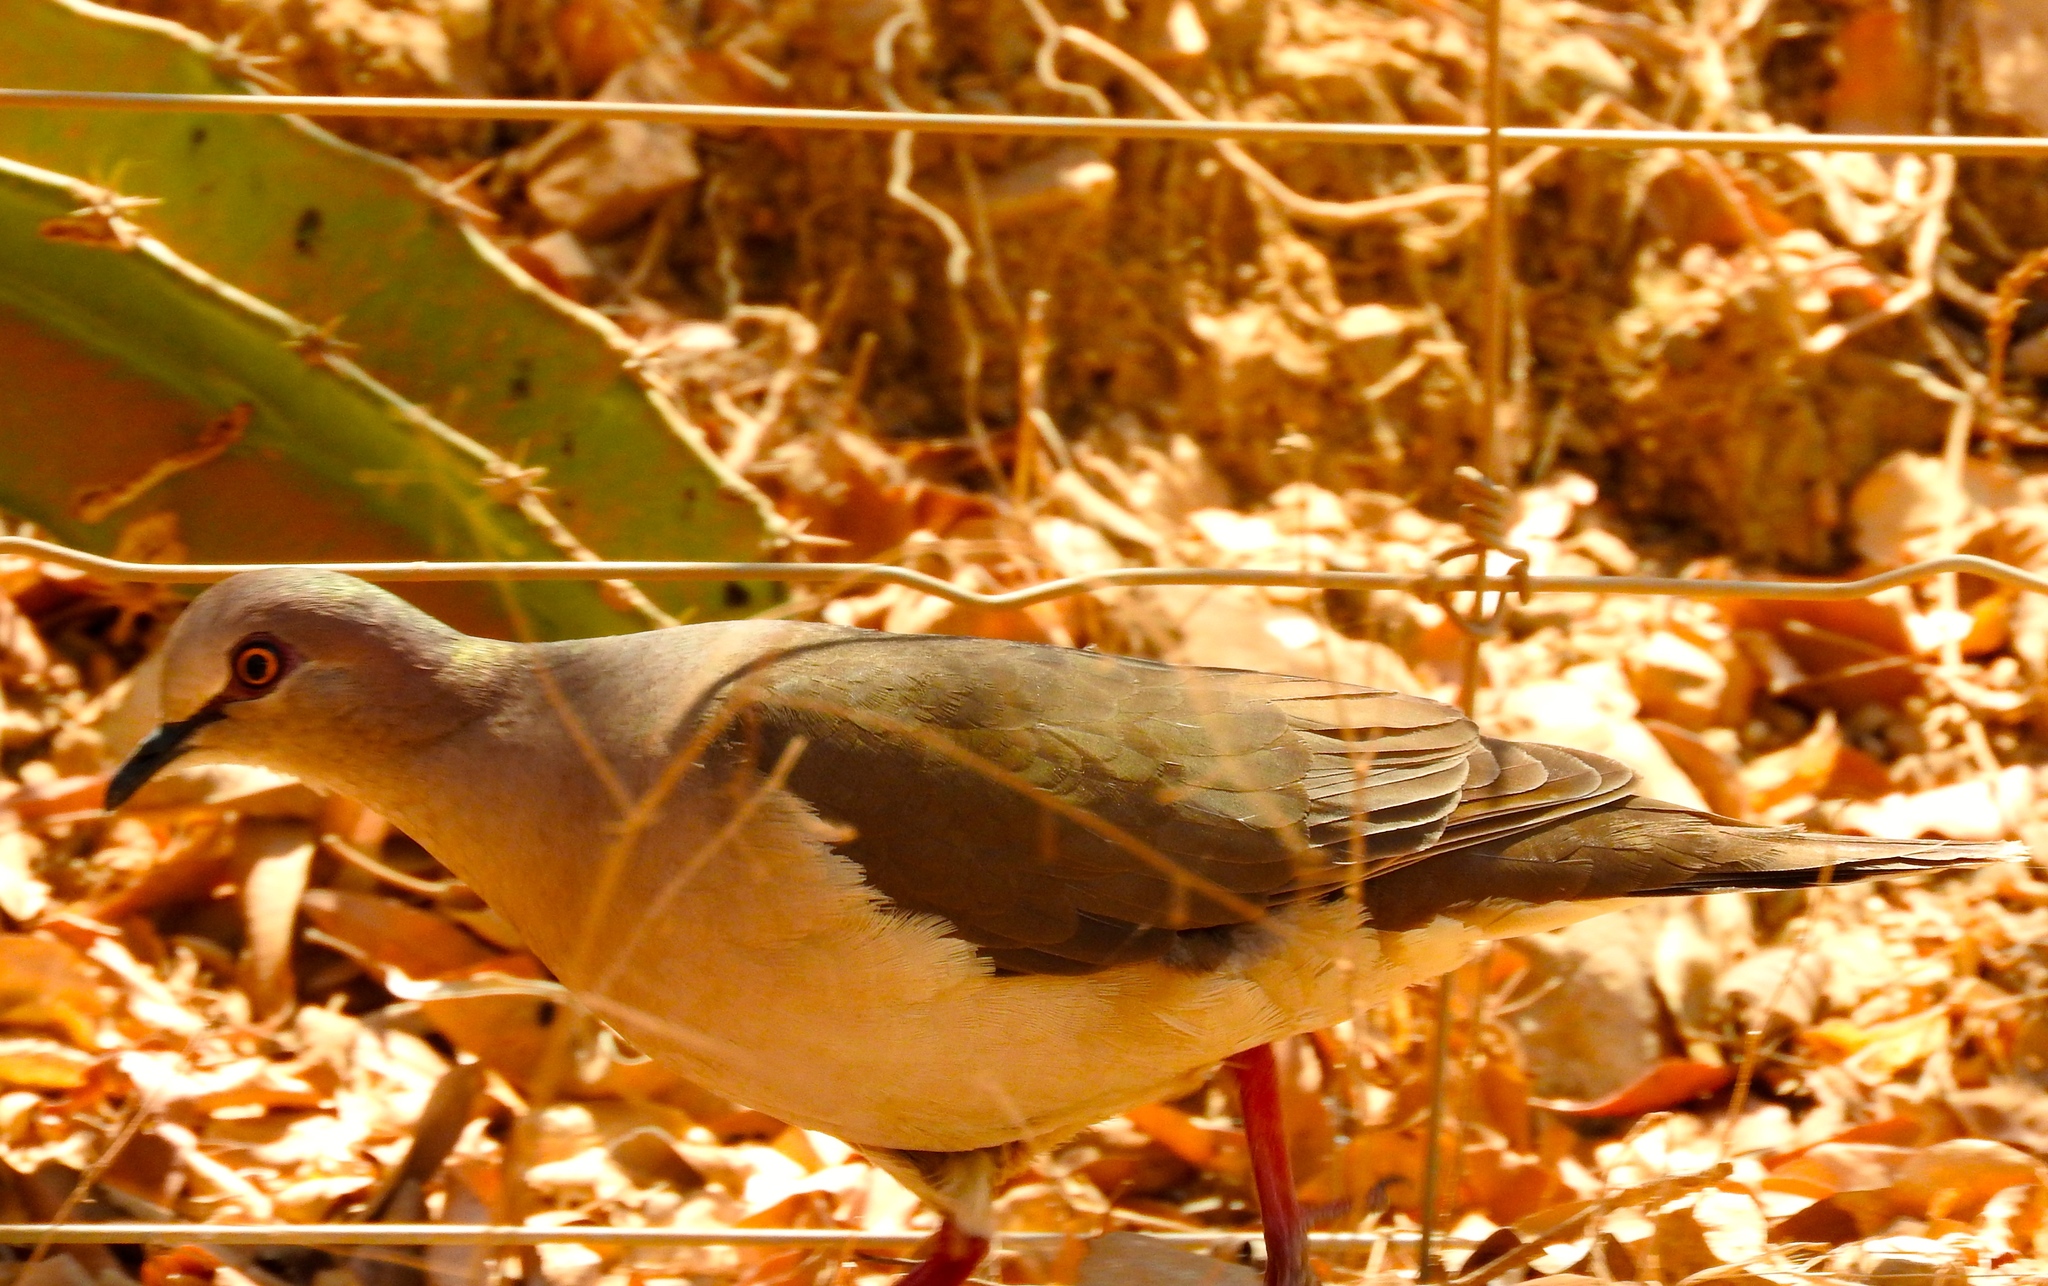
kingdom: Animalia
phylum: Chordata
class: Aves
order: Columbiformes
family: Columbidae
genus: Leptotila
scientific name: Leptotila verreauxi
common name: White-tipped dove
